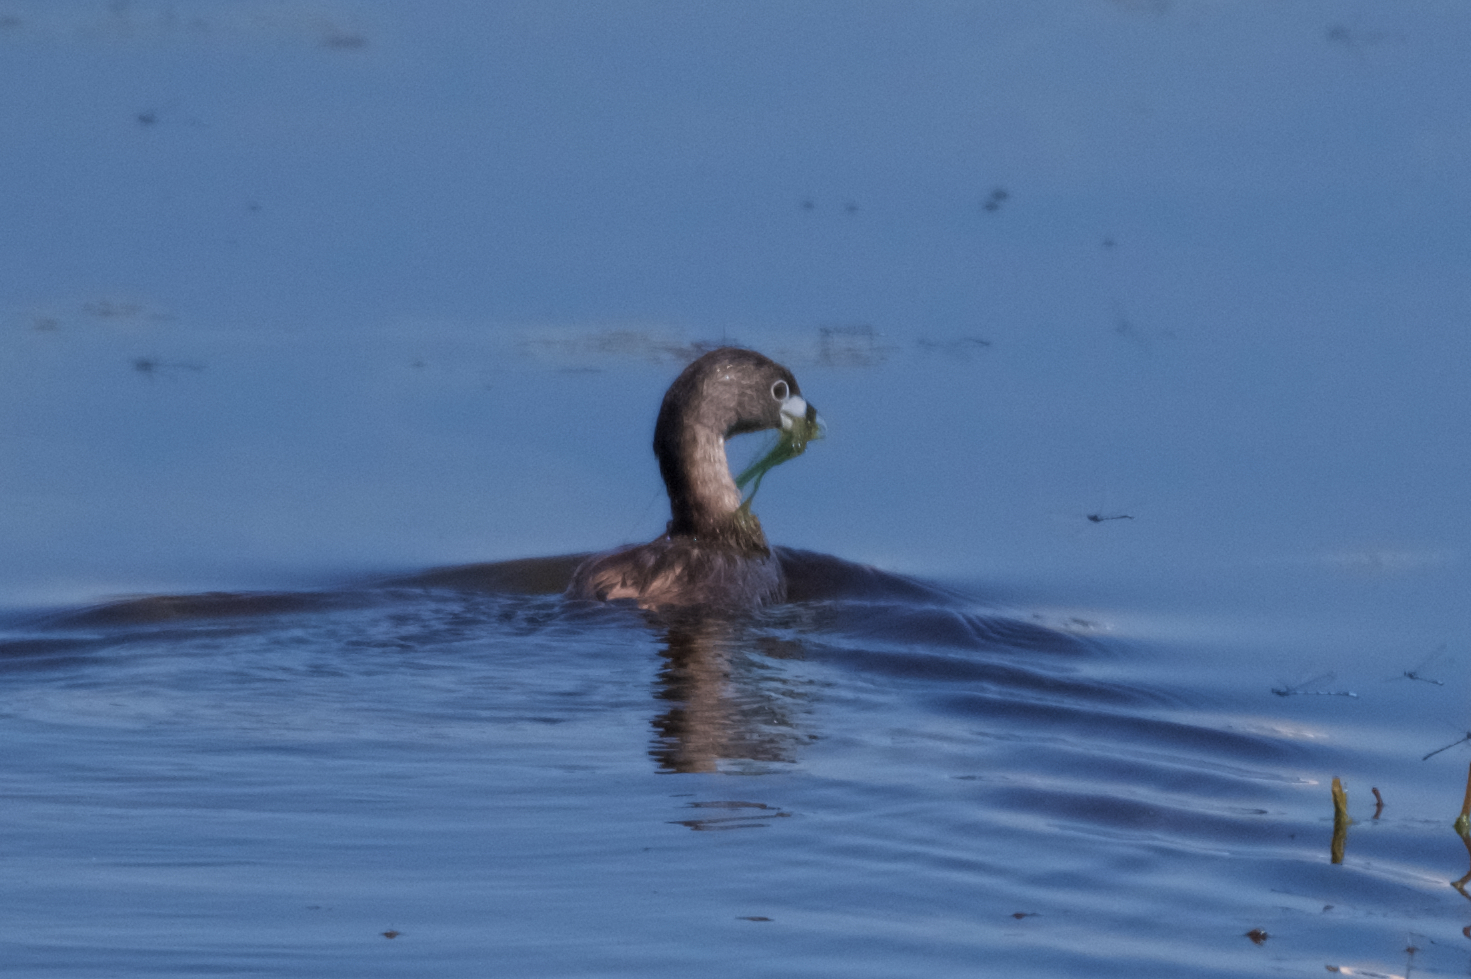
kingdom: Animalia
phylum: Chordata
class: Aves
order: Podicipediformes
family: Podicipedidae
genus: Podilymbus
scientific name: Podilymbus podiceps
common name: Pied-billed grebe
